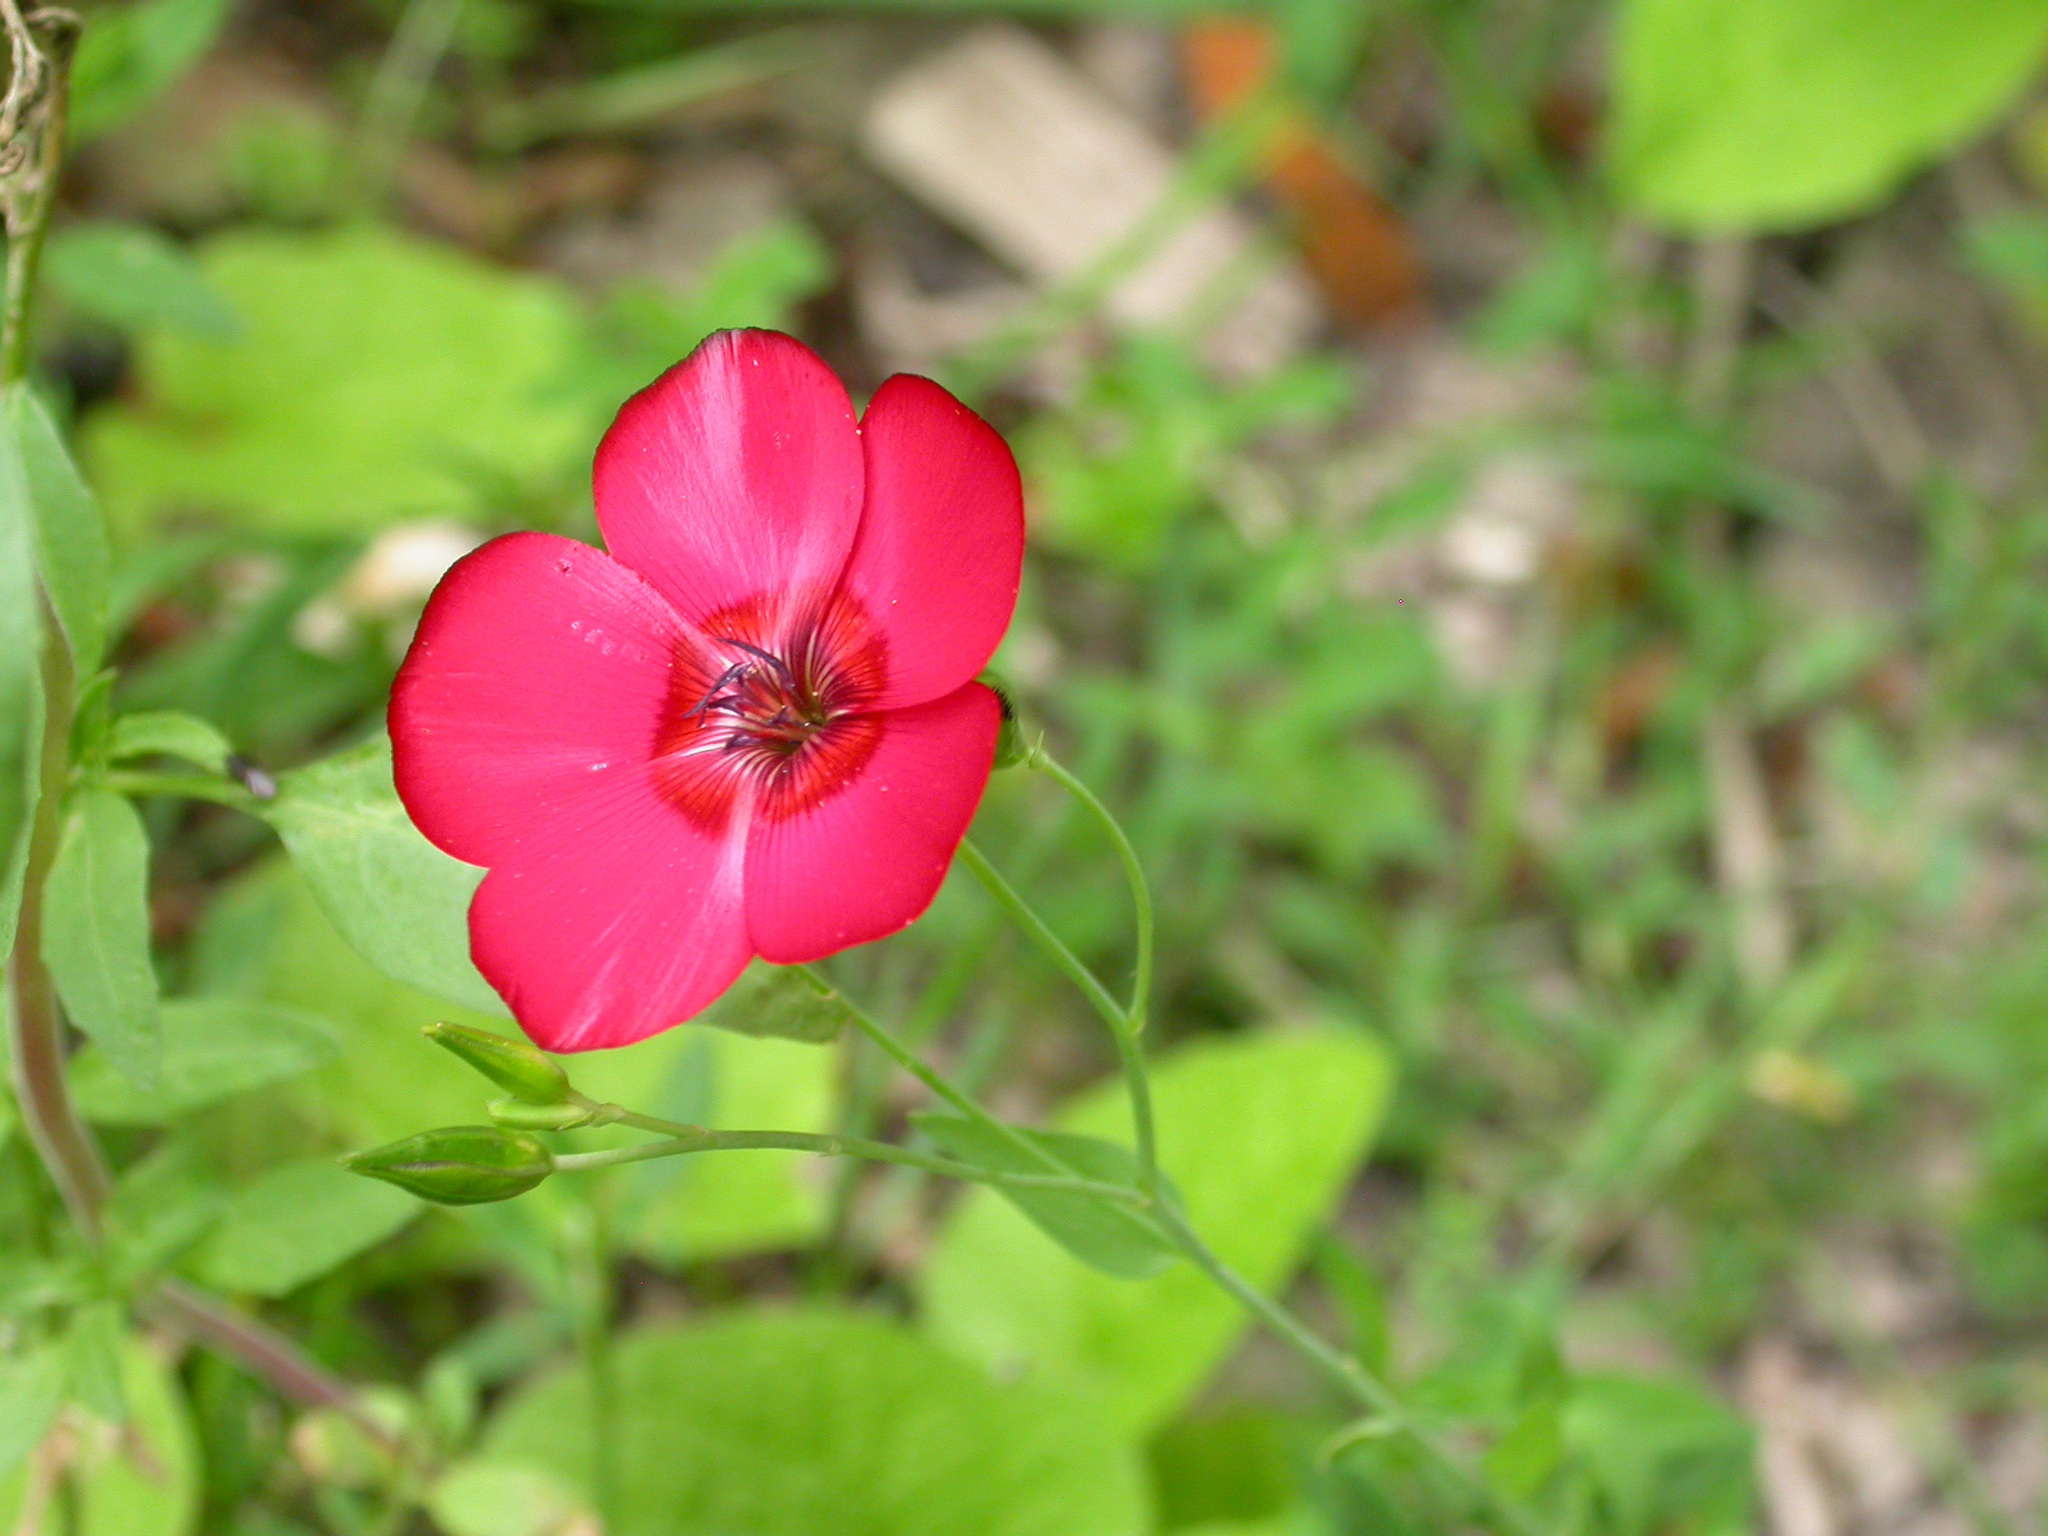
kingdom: Plantae
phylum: Tracheophyta
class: Magnoliopsida
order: Malpighiales
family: Linaceae
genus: Linum
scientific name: Linum grandiflorum
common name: Crimson flax
